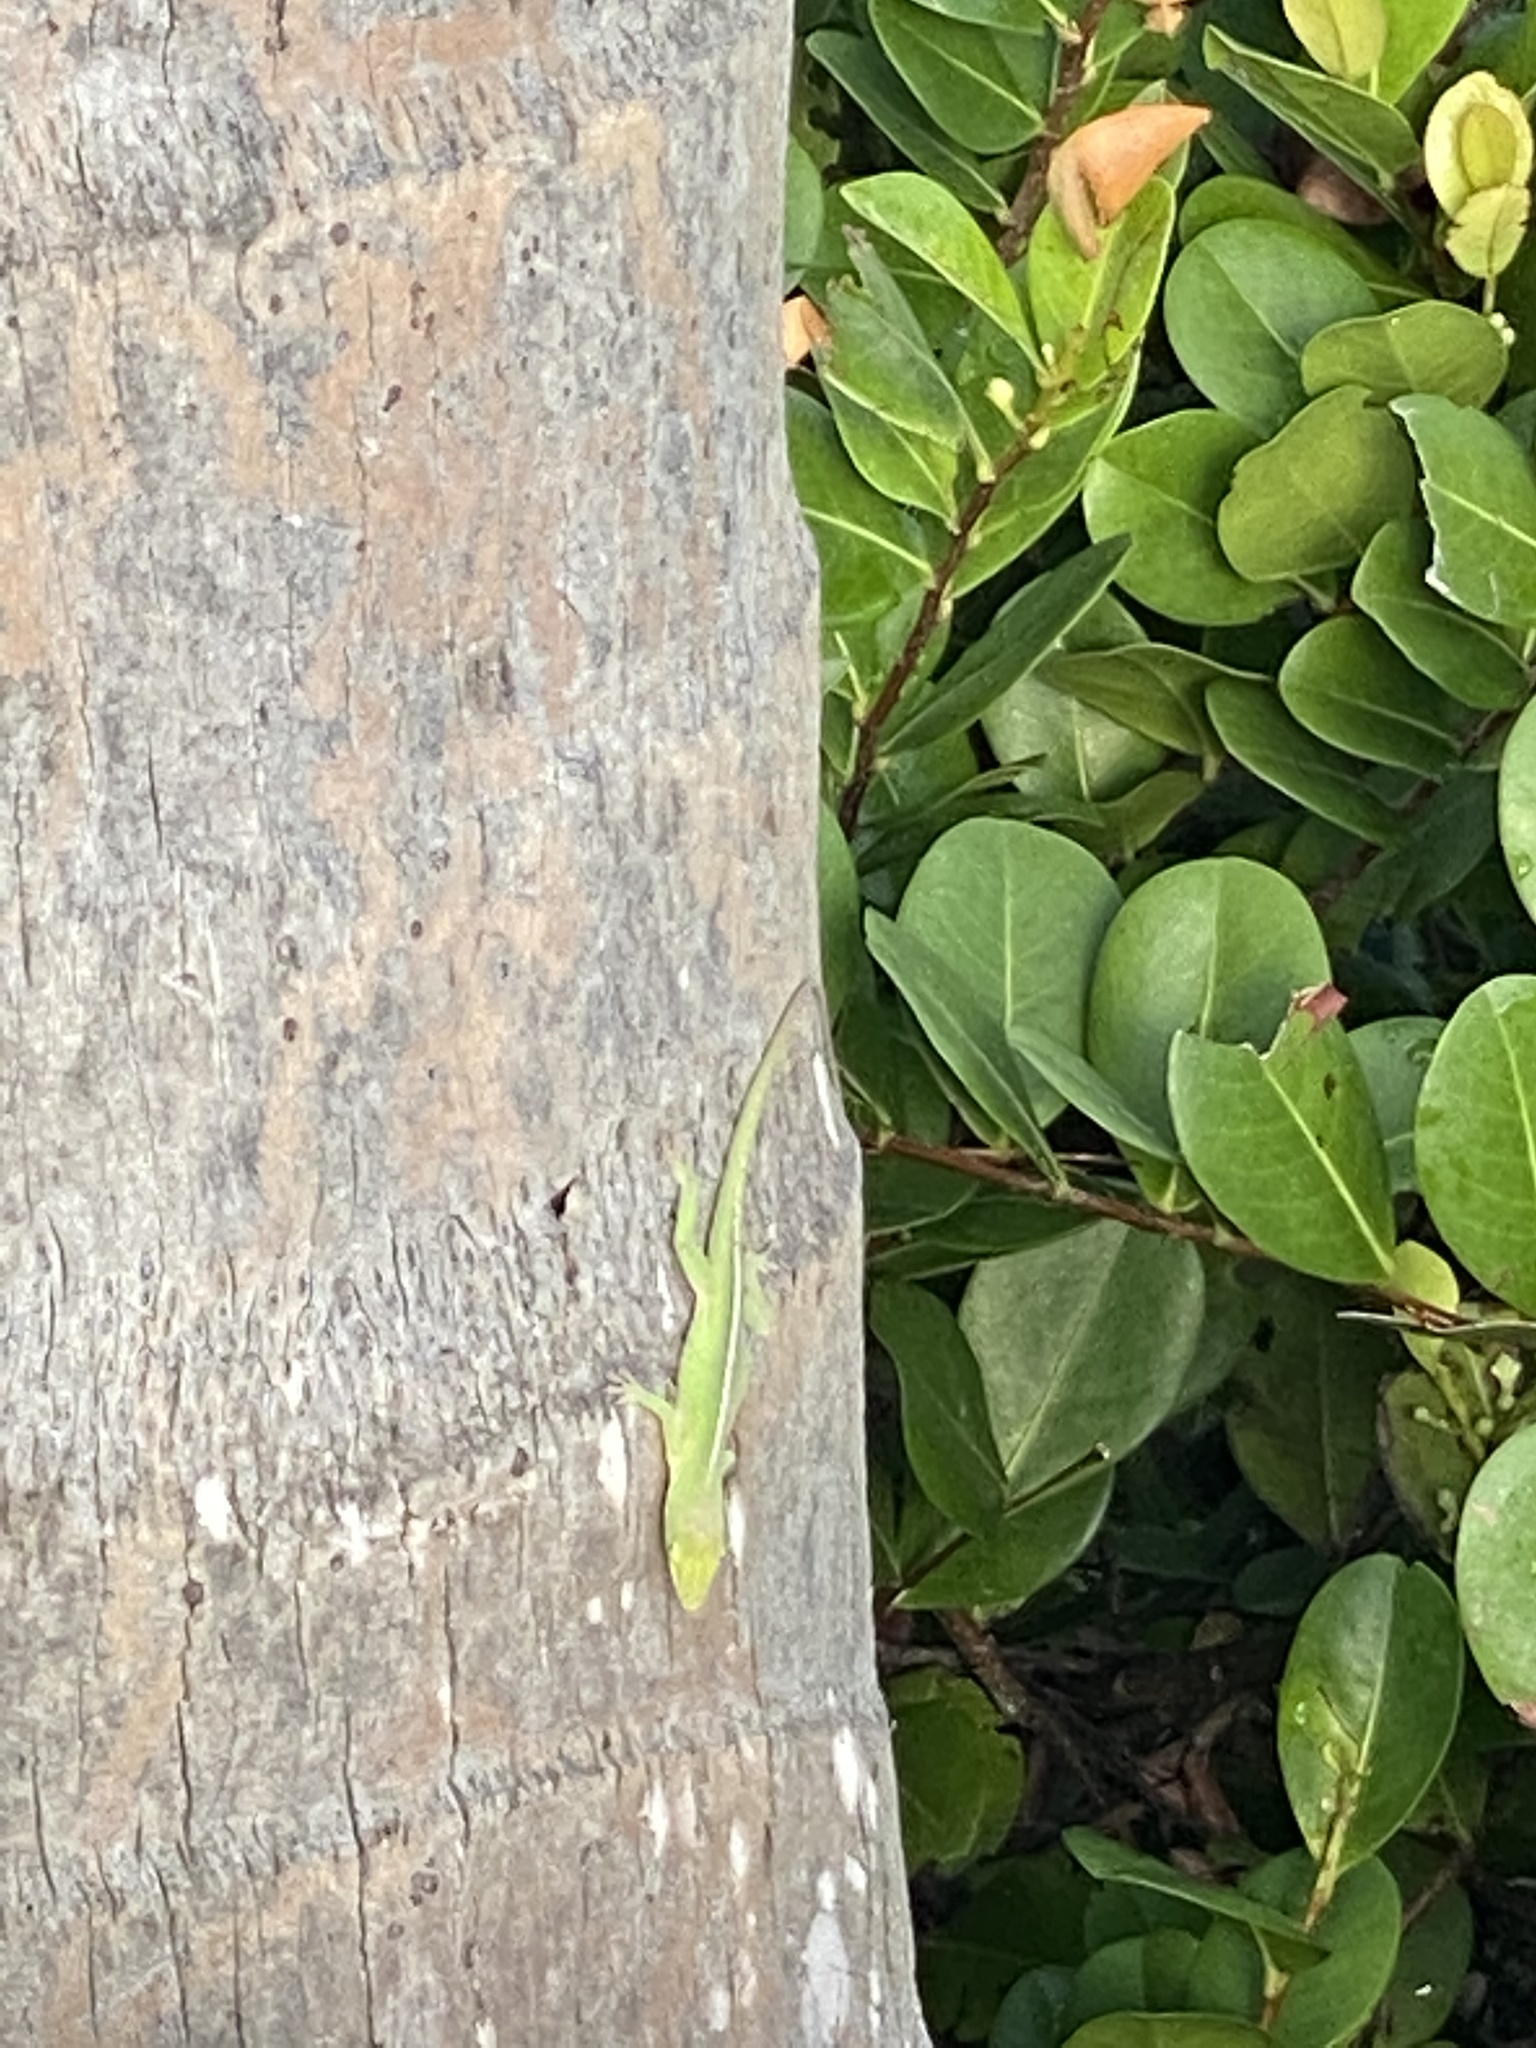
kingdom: Animalia
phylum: Chordata
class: Squamata
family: Dactyloidae
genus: Anolis
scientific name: Anolis carolinensis
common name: Green anole
